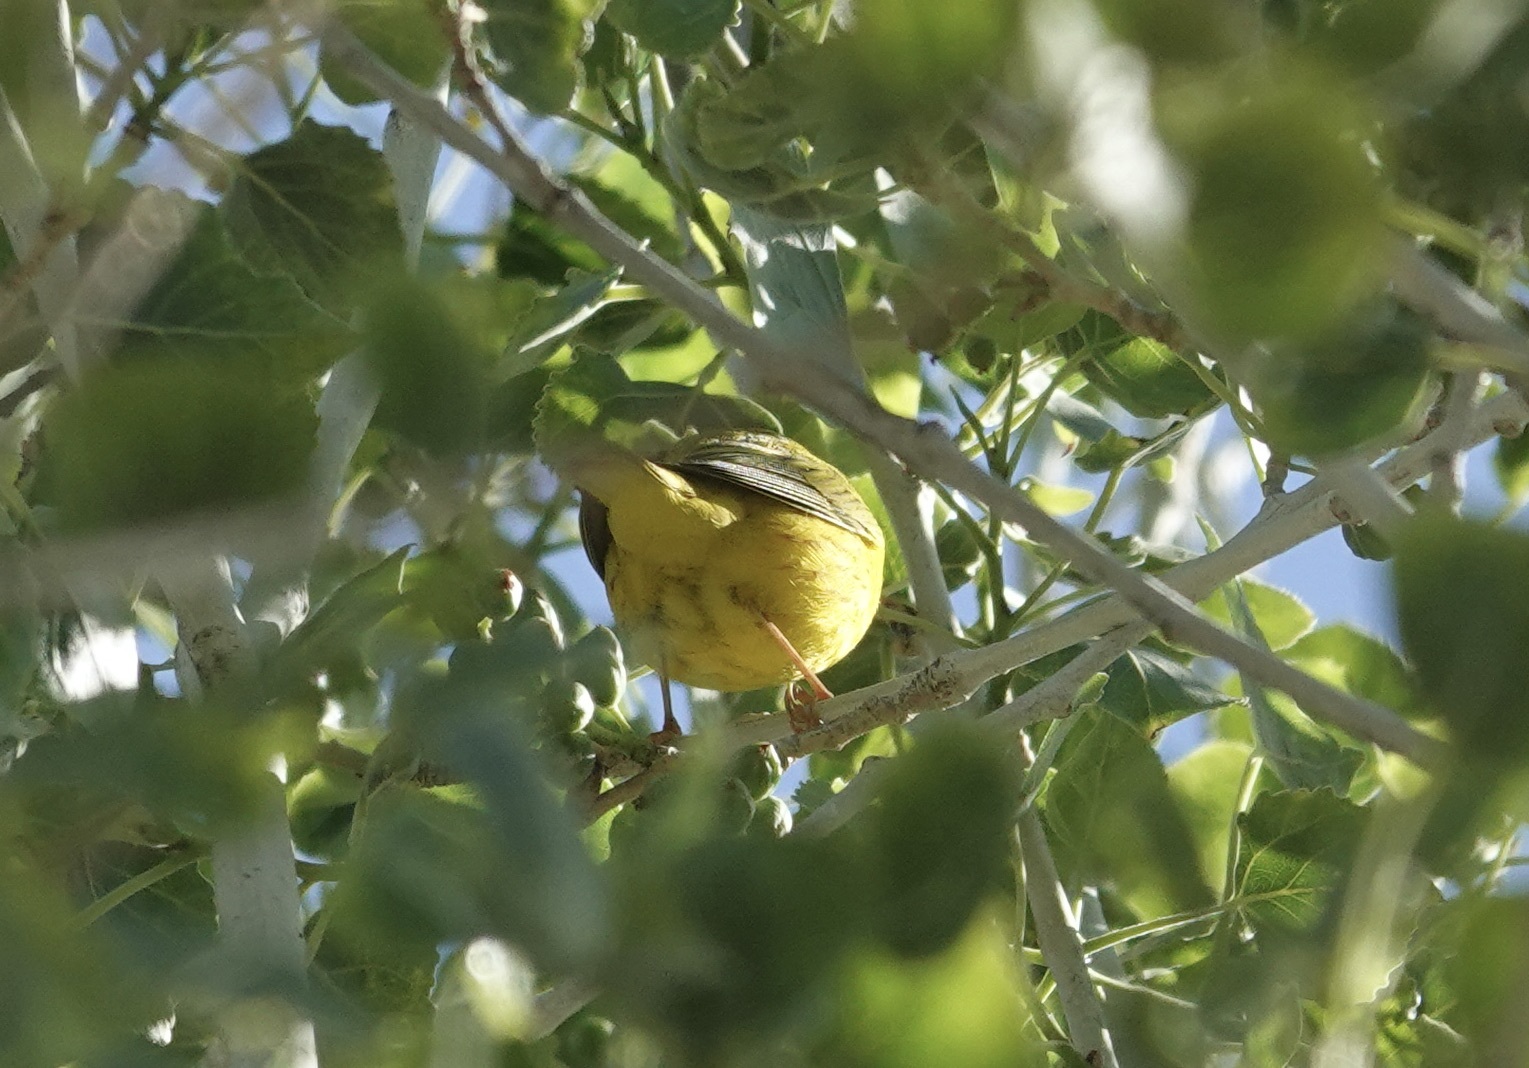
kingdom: Animalia
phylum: Chordata
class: Aves
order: Passeriformes
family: Parulidae
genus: Setophaga
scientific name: Setophaga petechia
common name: Yellow warbler
